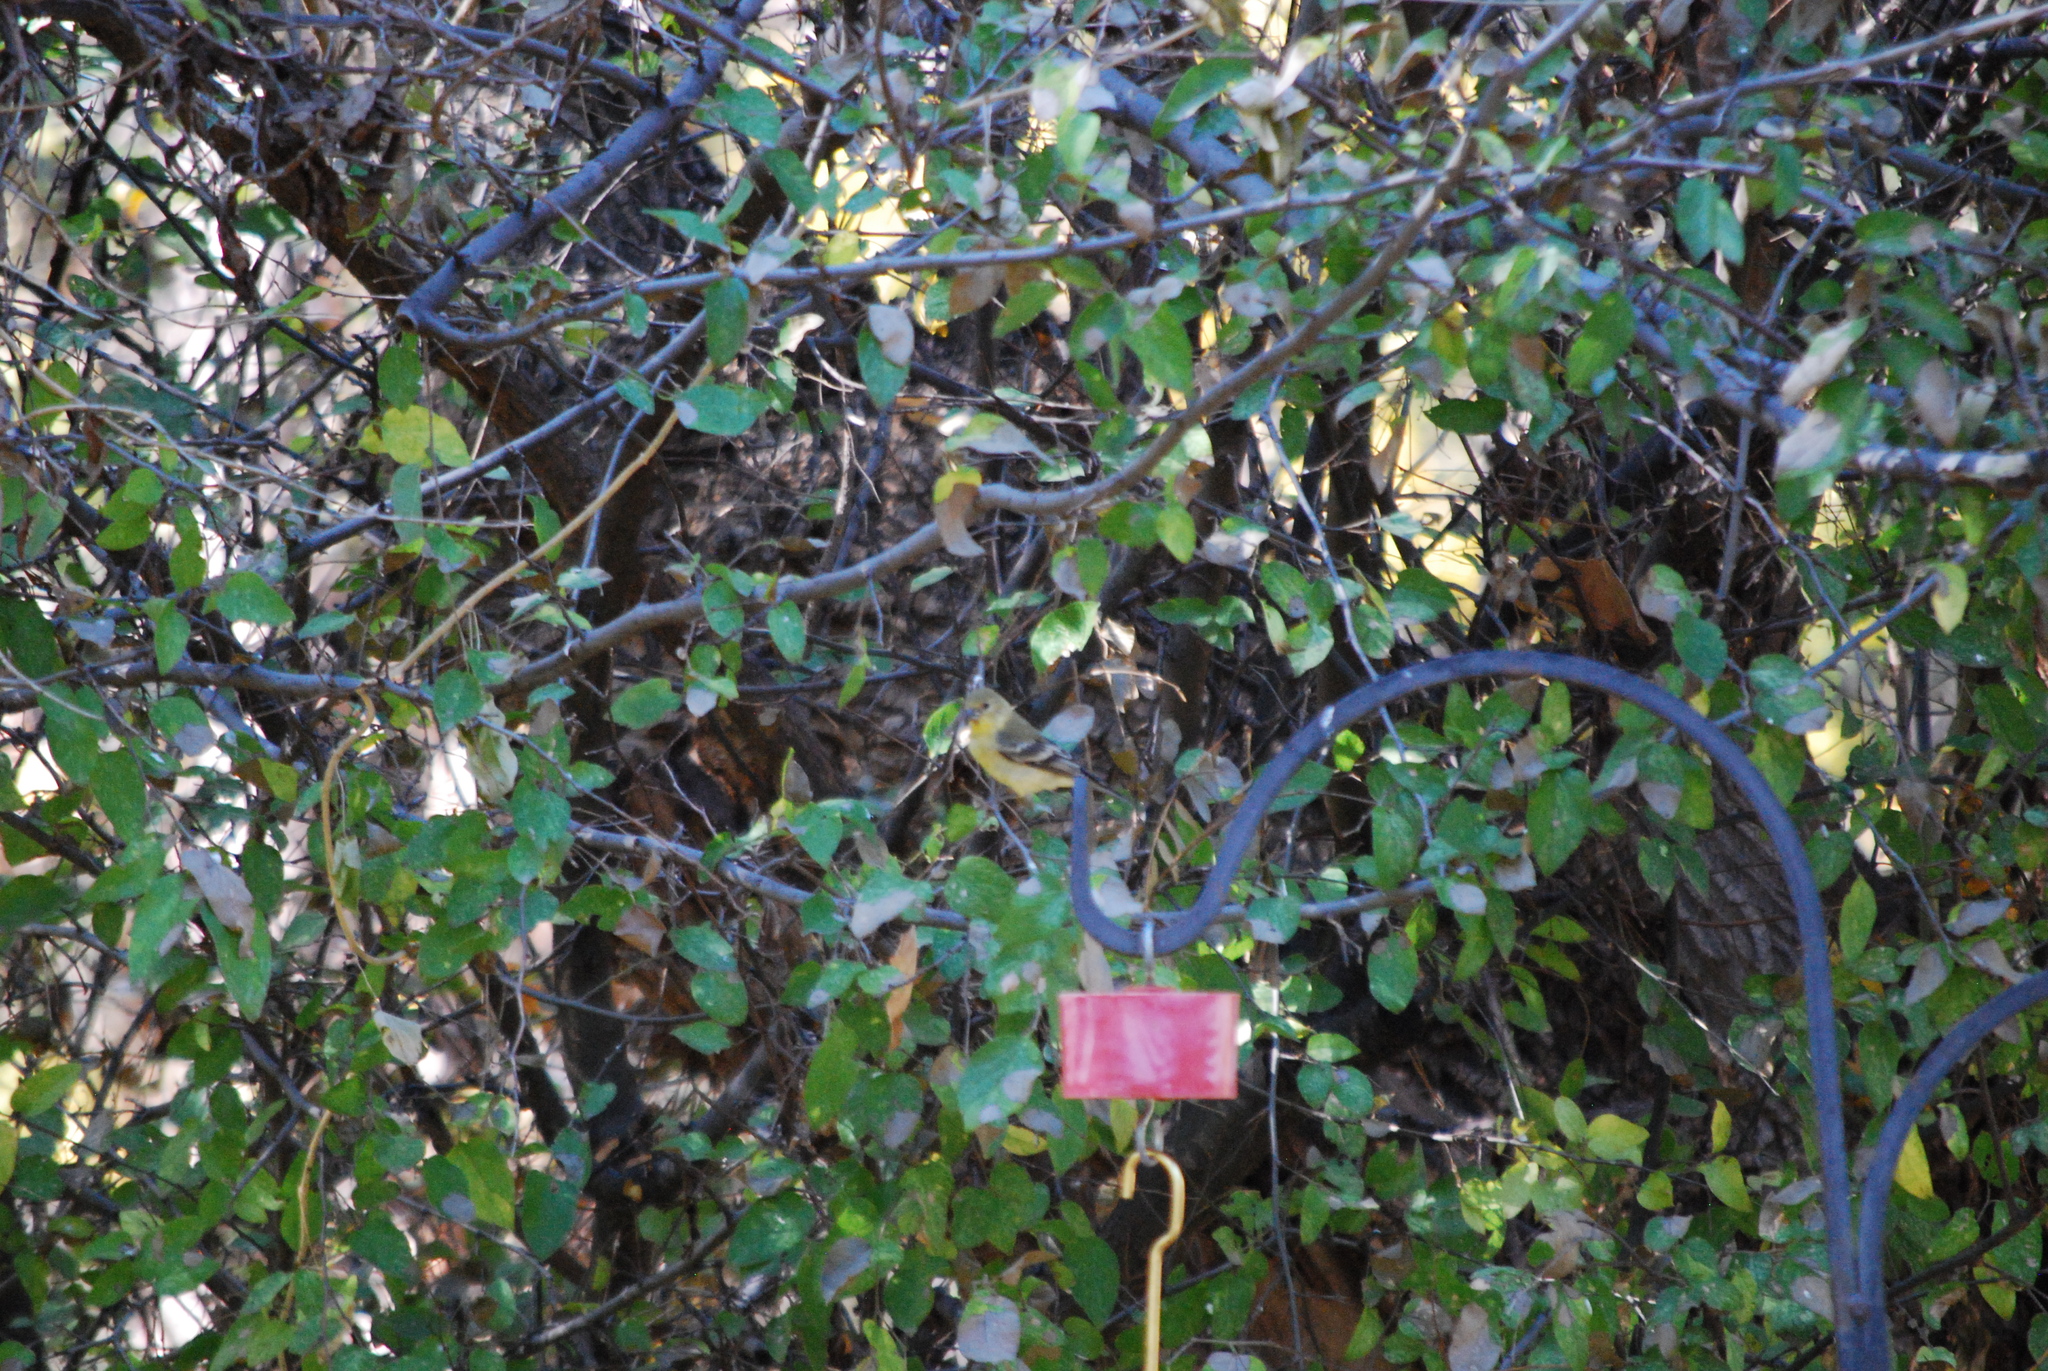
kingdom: Animalia
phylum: Chordata
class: Aves
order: Passeriformes
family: Fringillidae
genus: Spinus
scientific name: Spinus psaltria
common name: Lesser goldfinch
